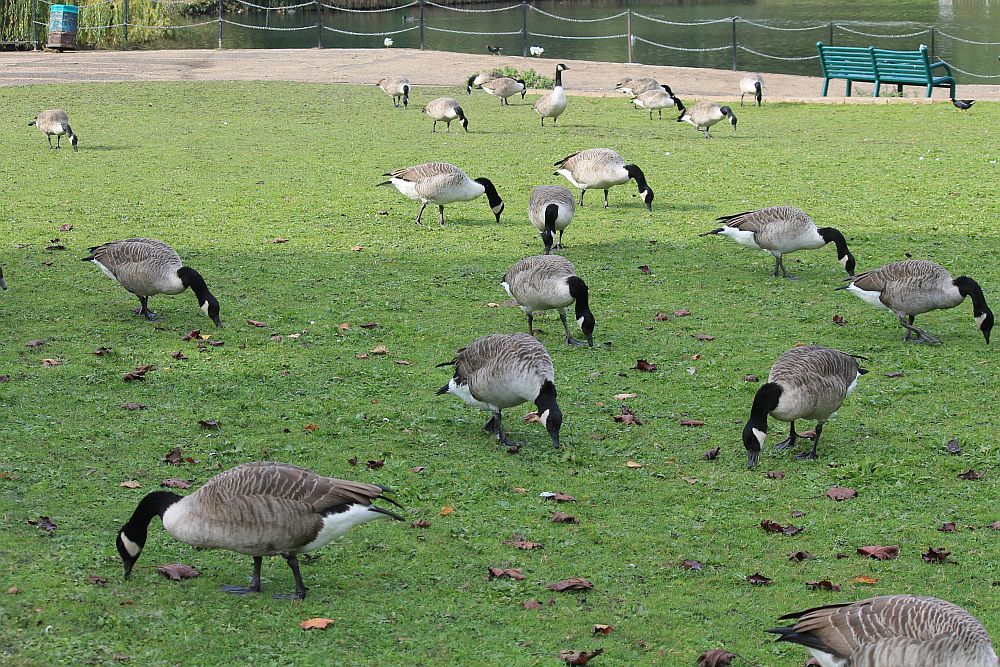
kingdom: Animalia
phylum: Chordata
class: Aves
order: Anseriformes
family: Anatidae
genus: Branta
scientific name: Branta canadensis
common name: Canada goose
